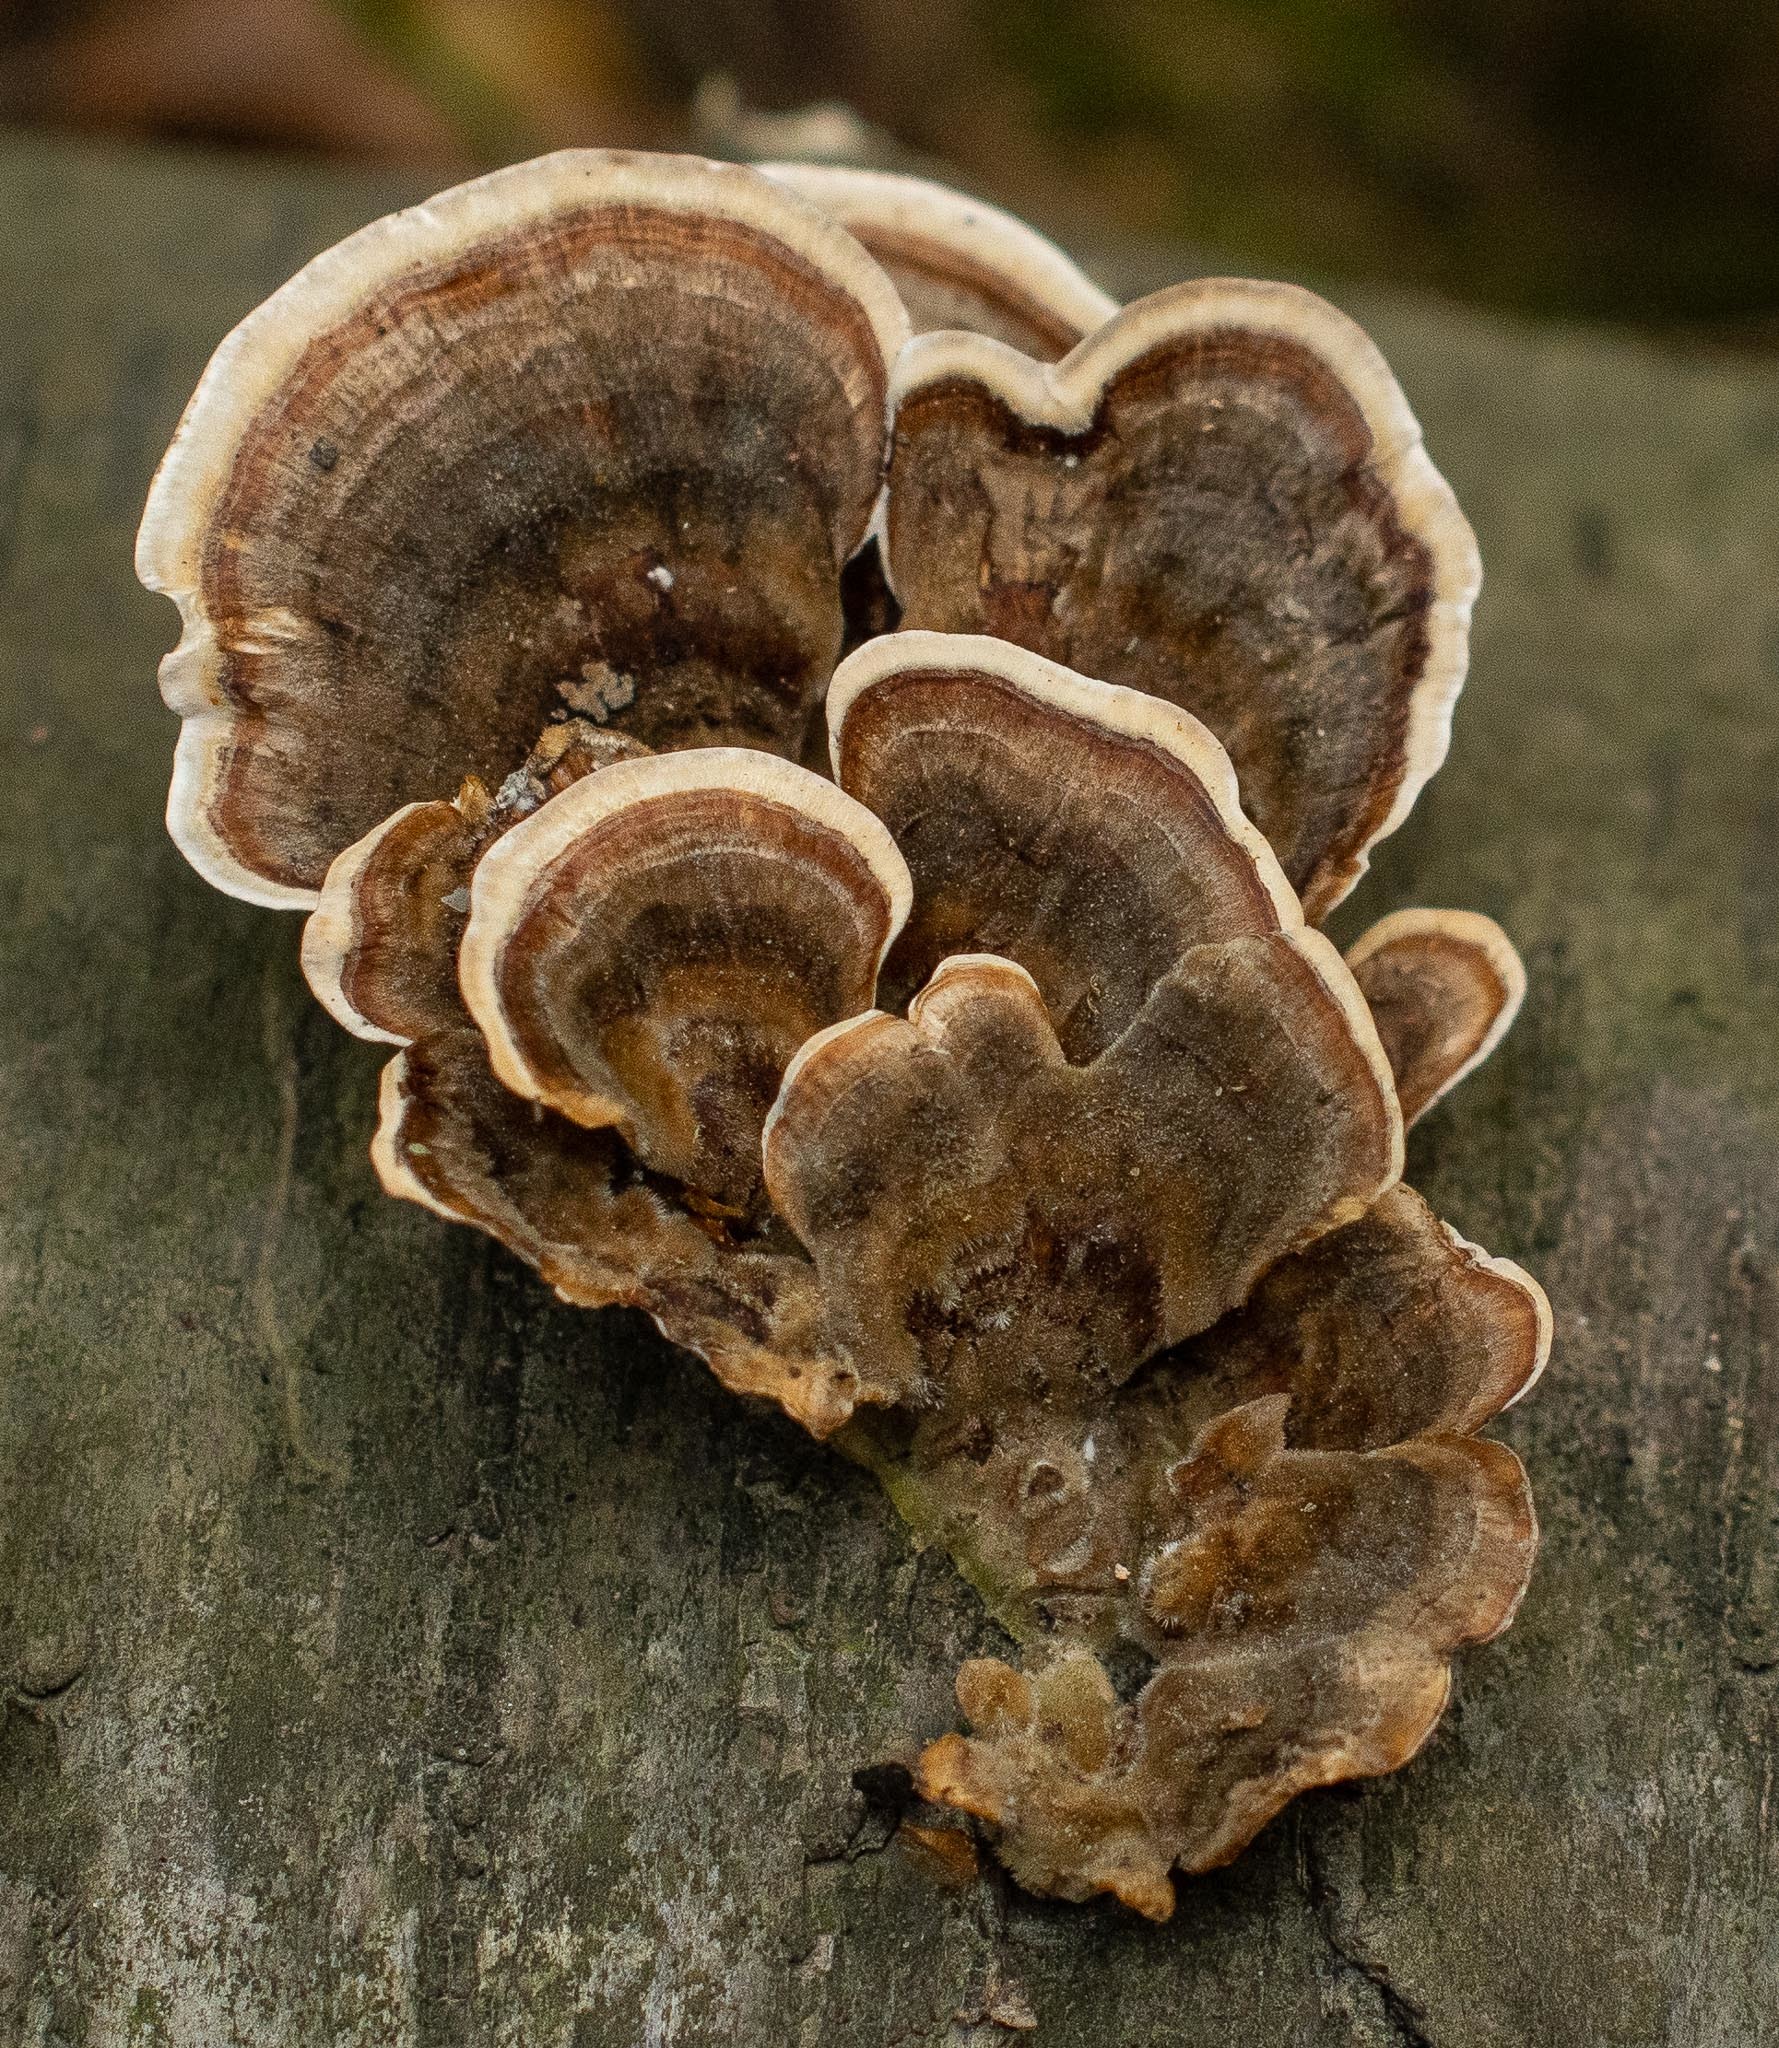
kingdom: Fungi
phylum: Basidiomycota
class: Agaricomycetes
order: Polyporales
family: Polyporaceae
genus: Trametes
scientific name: Trametes versicolor
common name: Turkeytail
